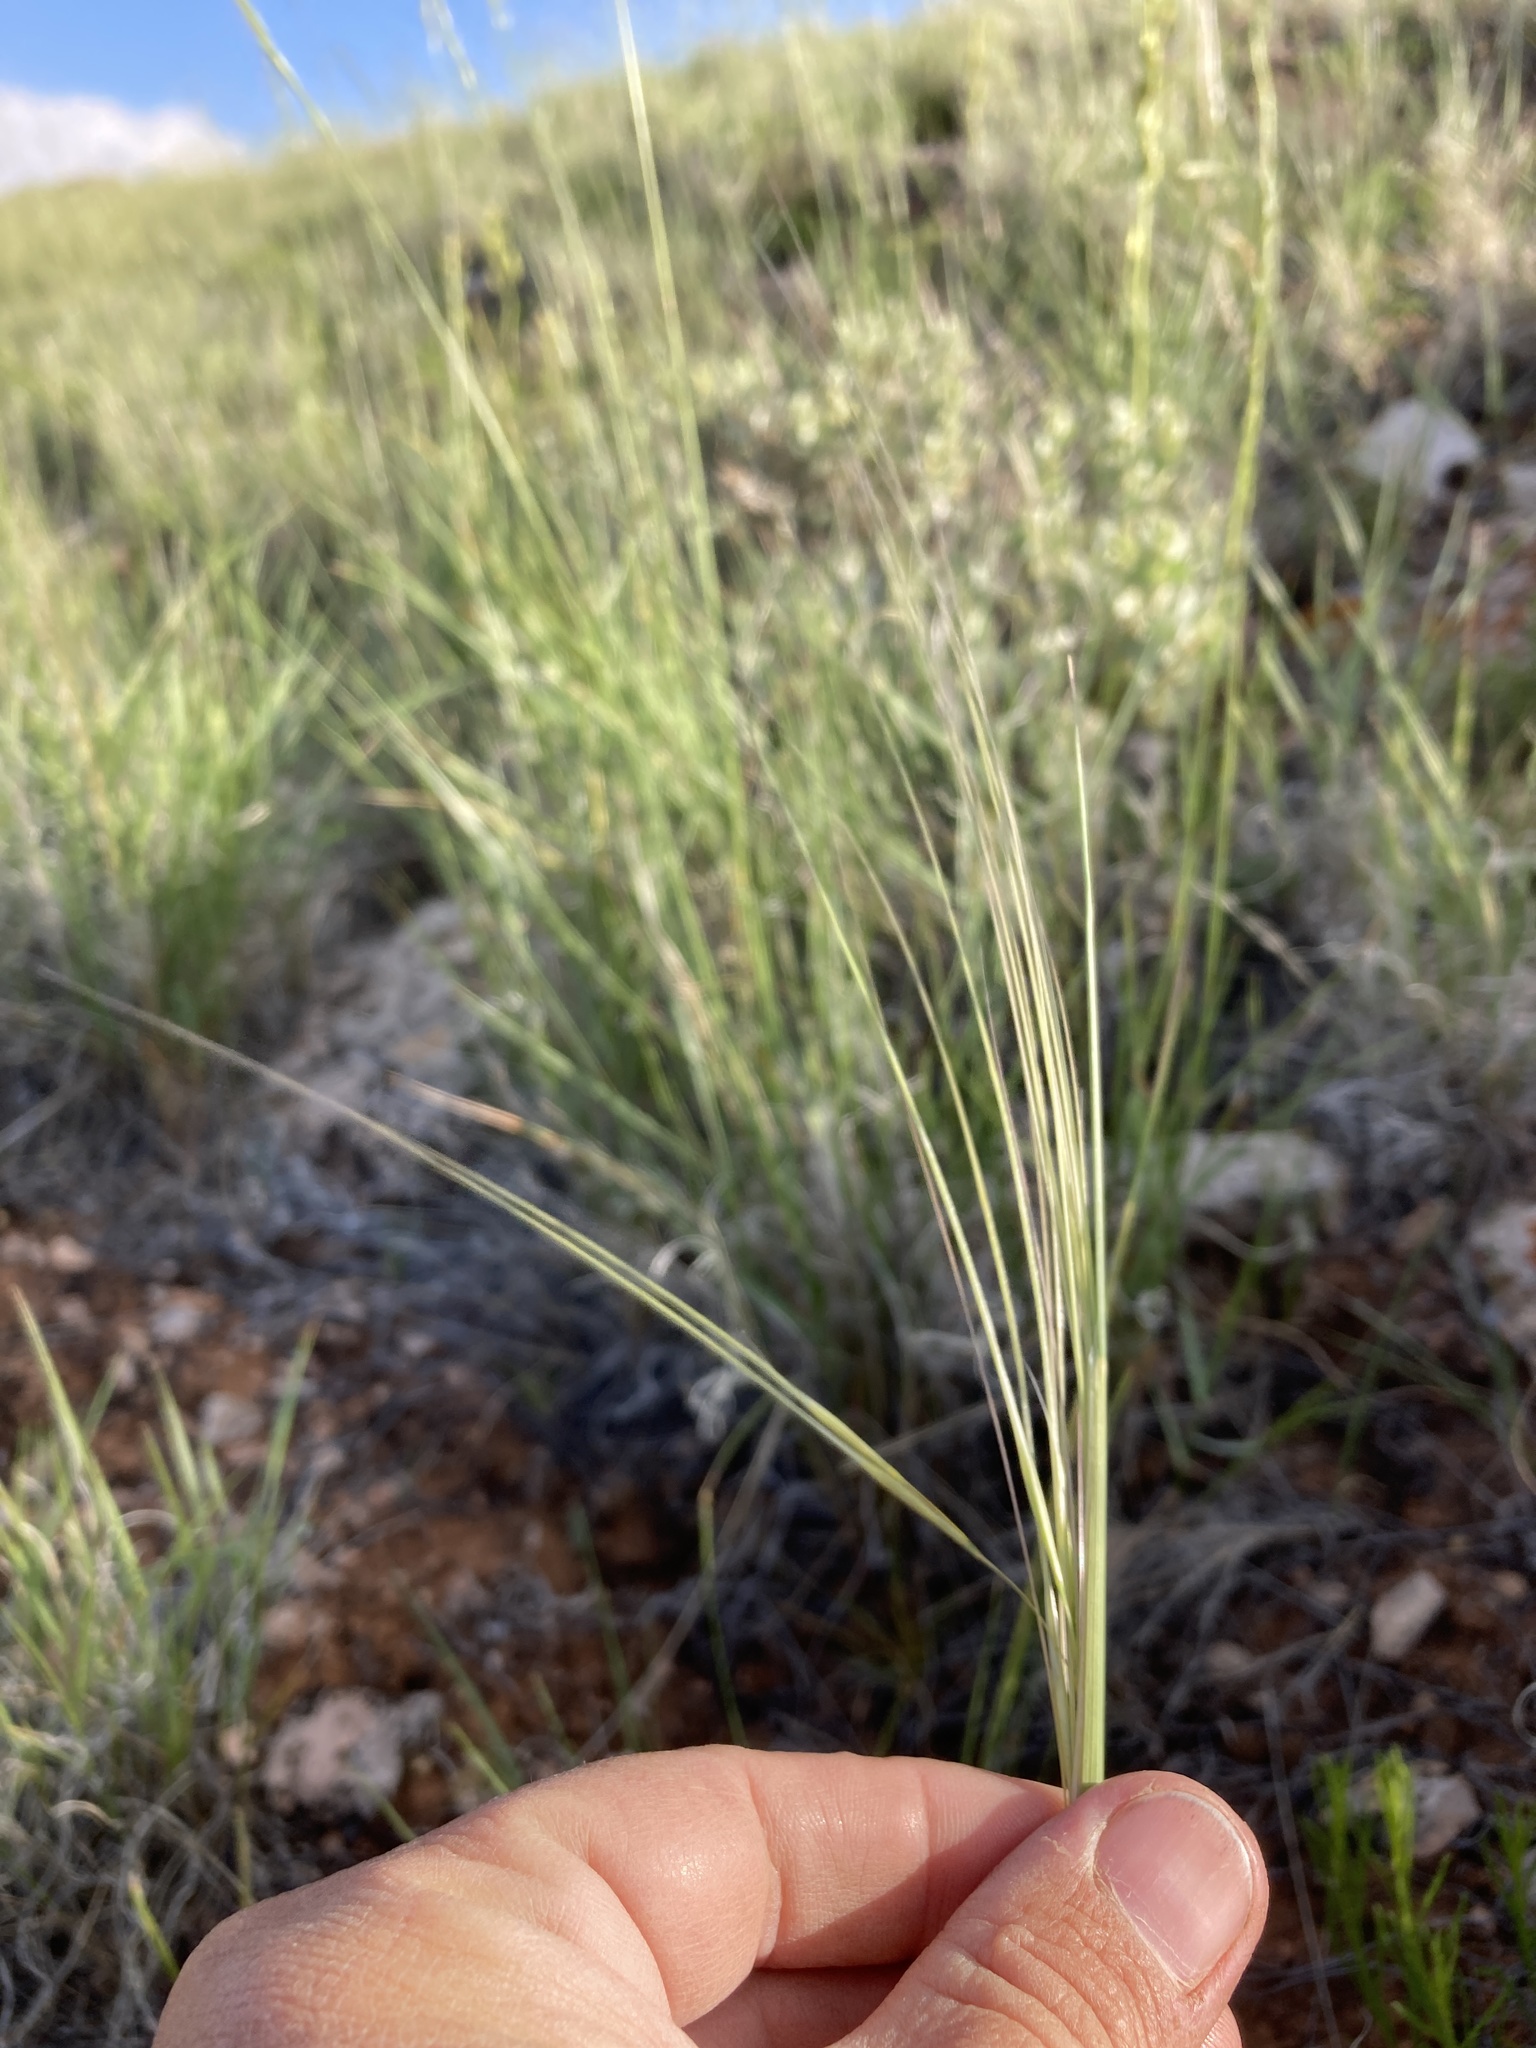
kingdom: Plantae
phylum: Tracheophyta
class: Liliopsida
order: Poales
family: Poaceae
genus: Hesperostipa
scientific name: Hesperostipa comata
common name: Needle-and-thread grass
